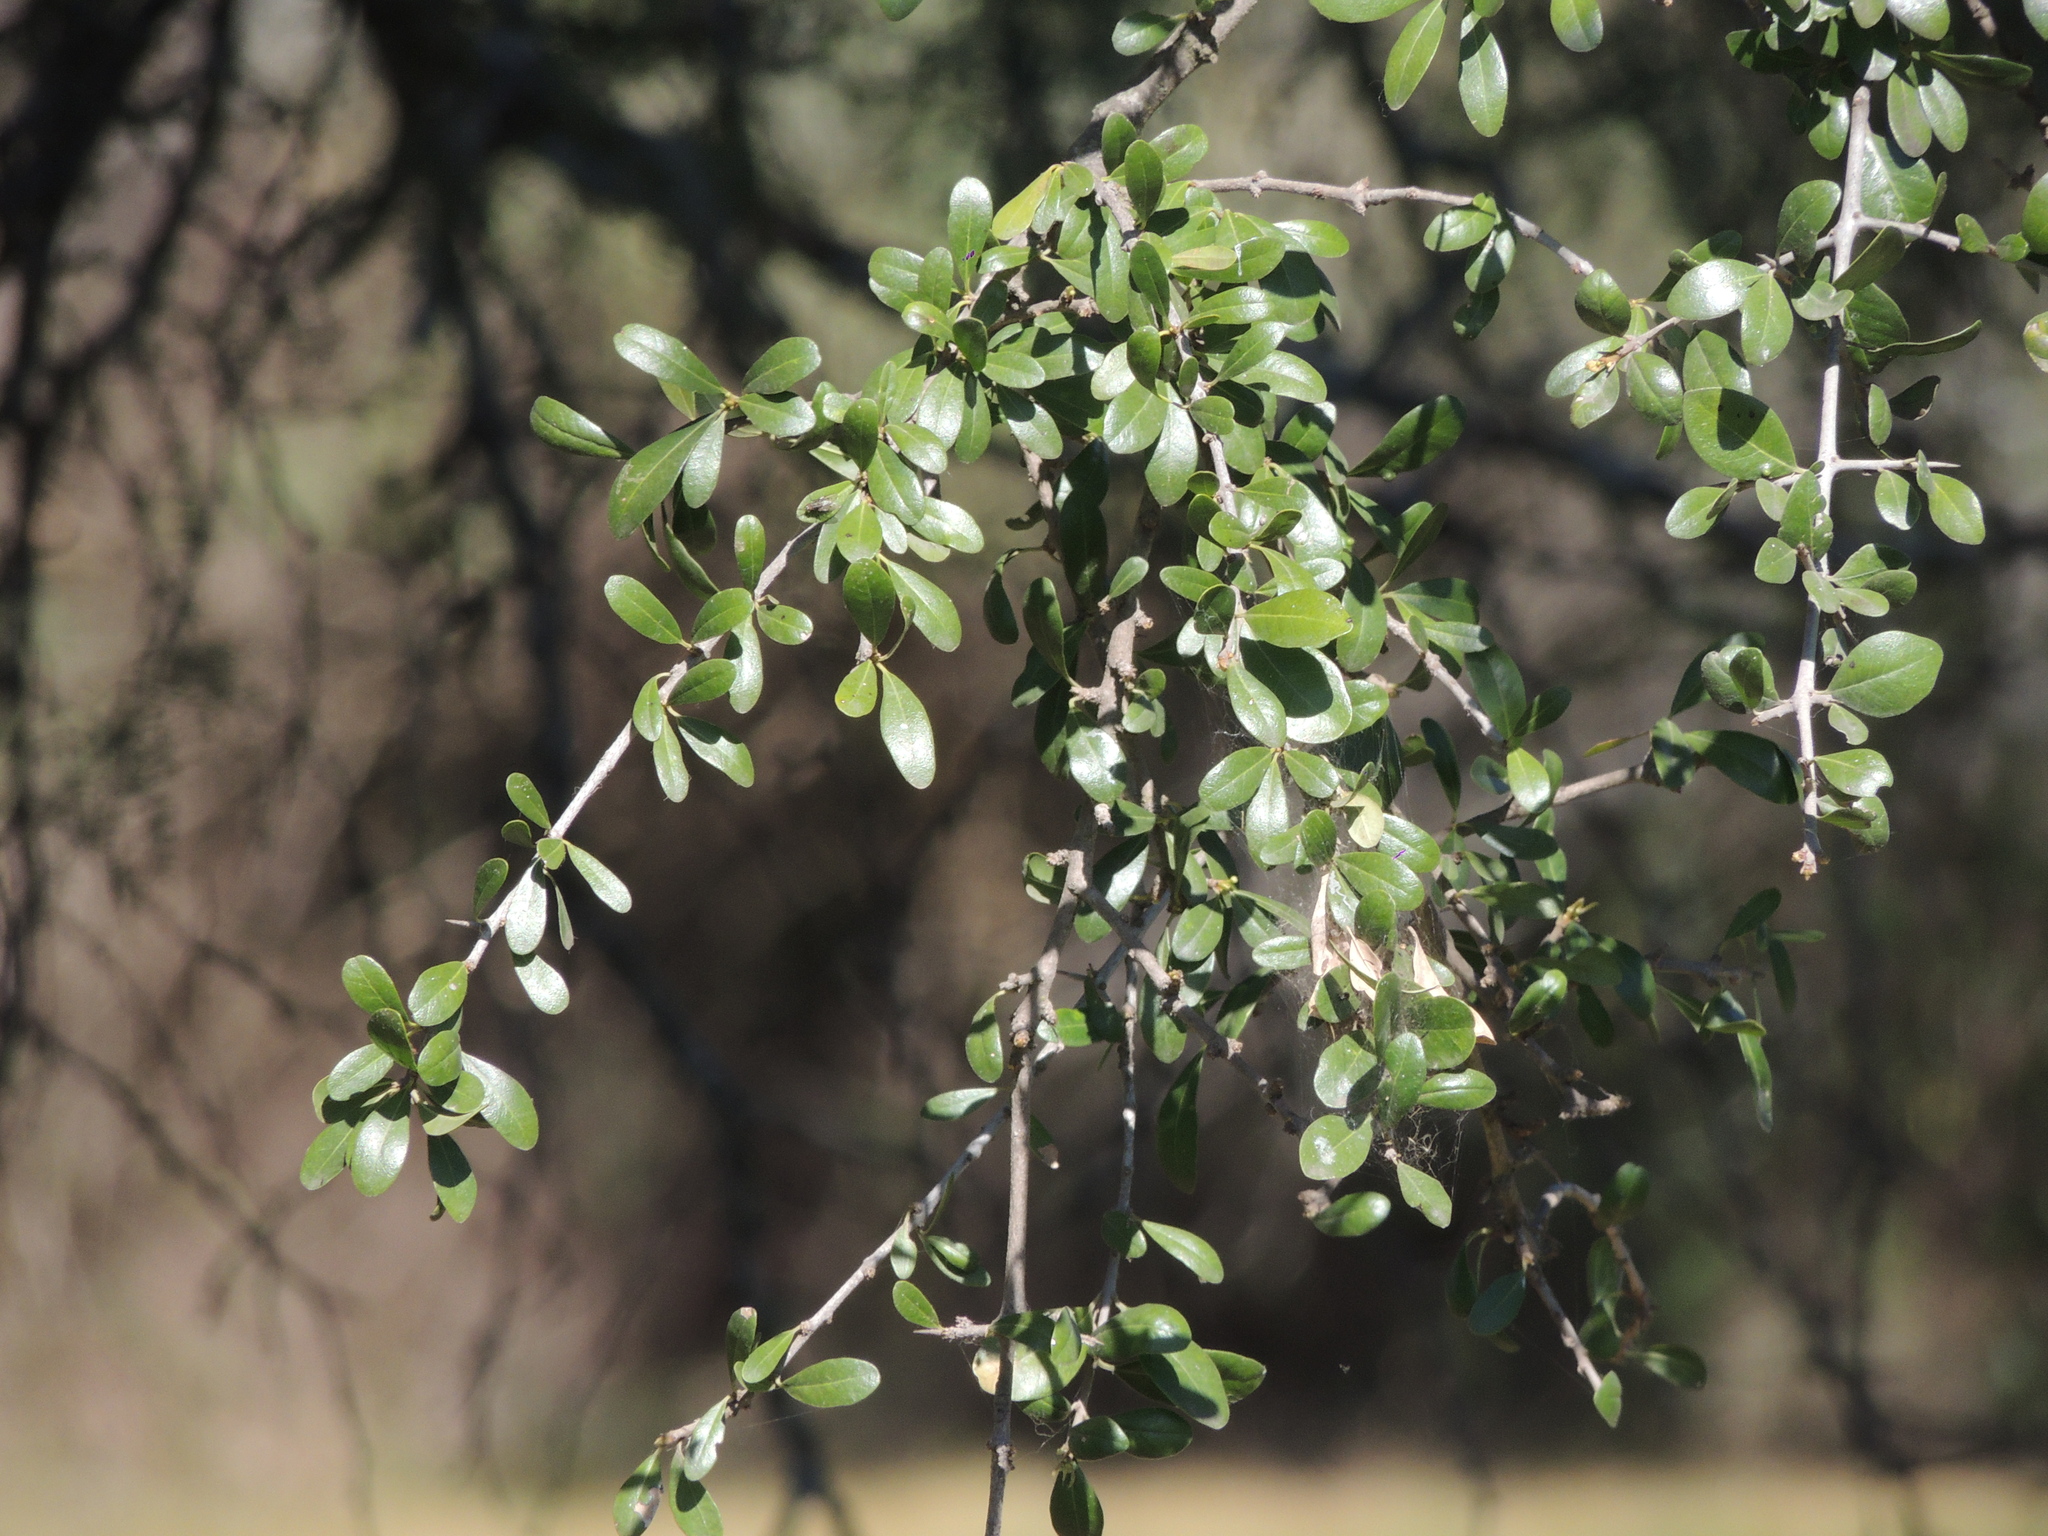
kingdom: Plantae
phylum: Tracheophyta
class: Magnoliopsida
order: Ericales
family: Sapotaceae
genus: Sideroxylon
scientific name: Sideroxylon obtusifolium
